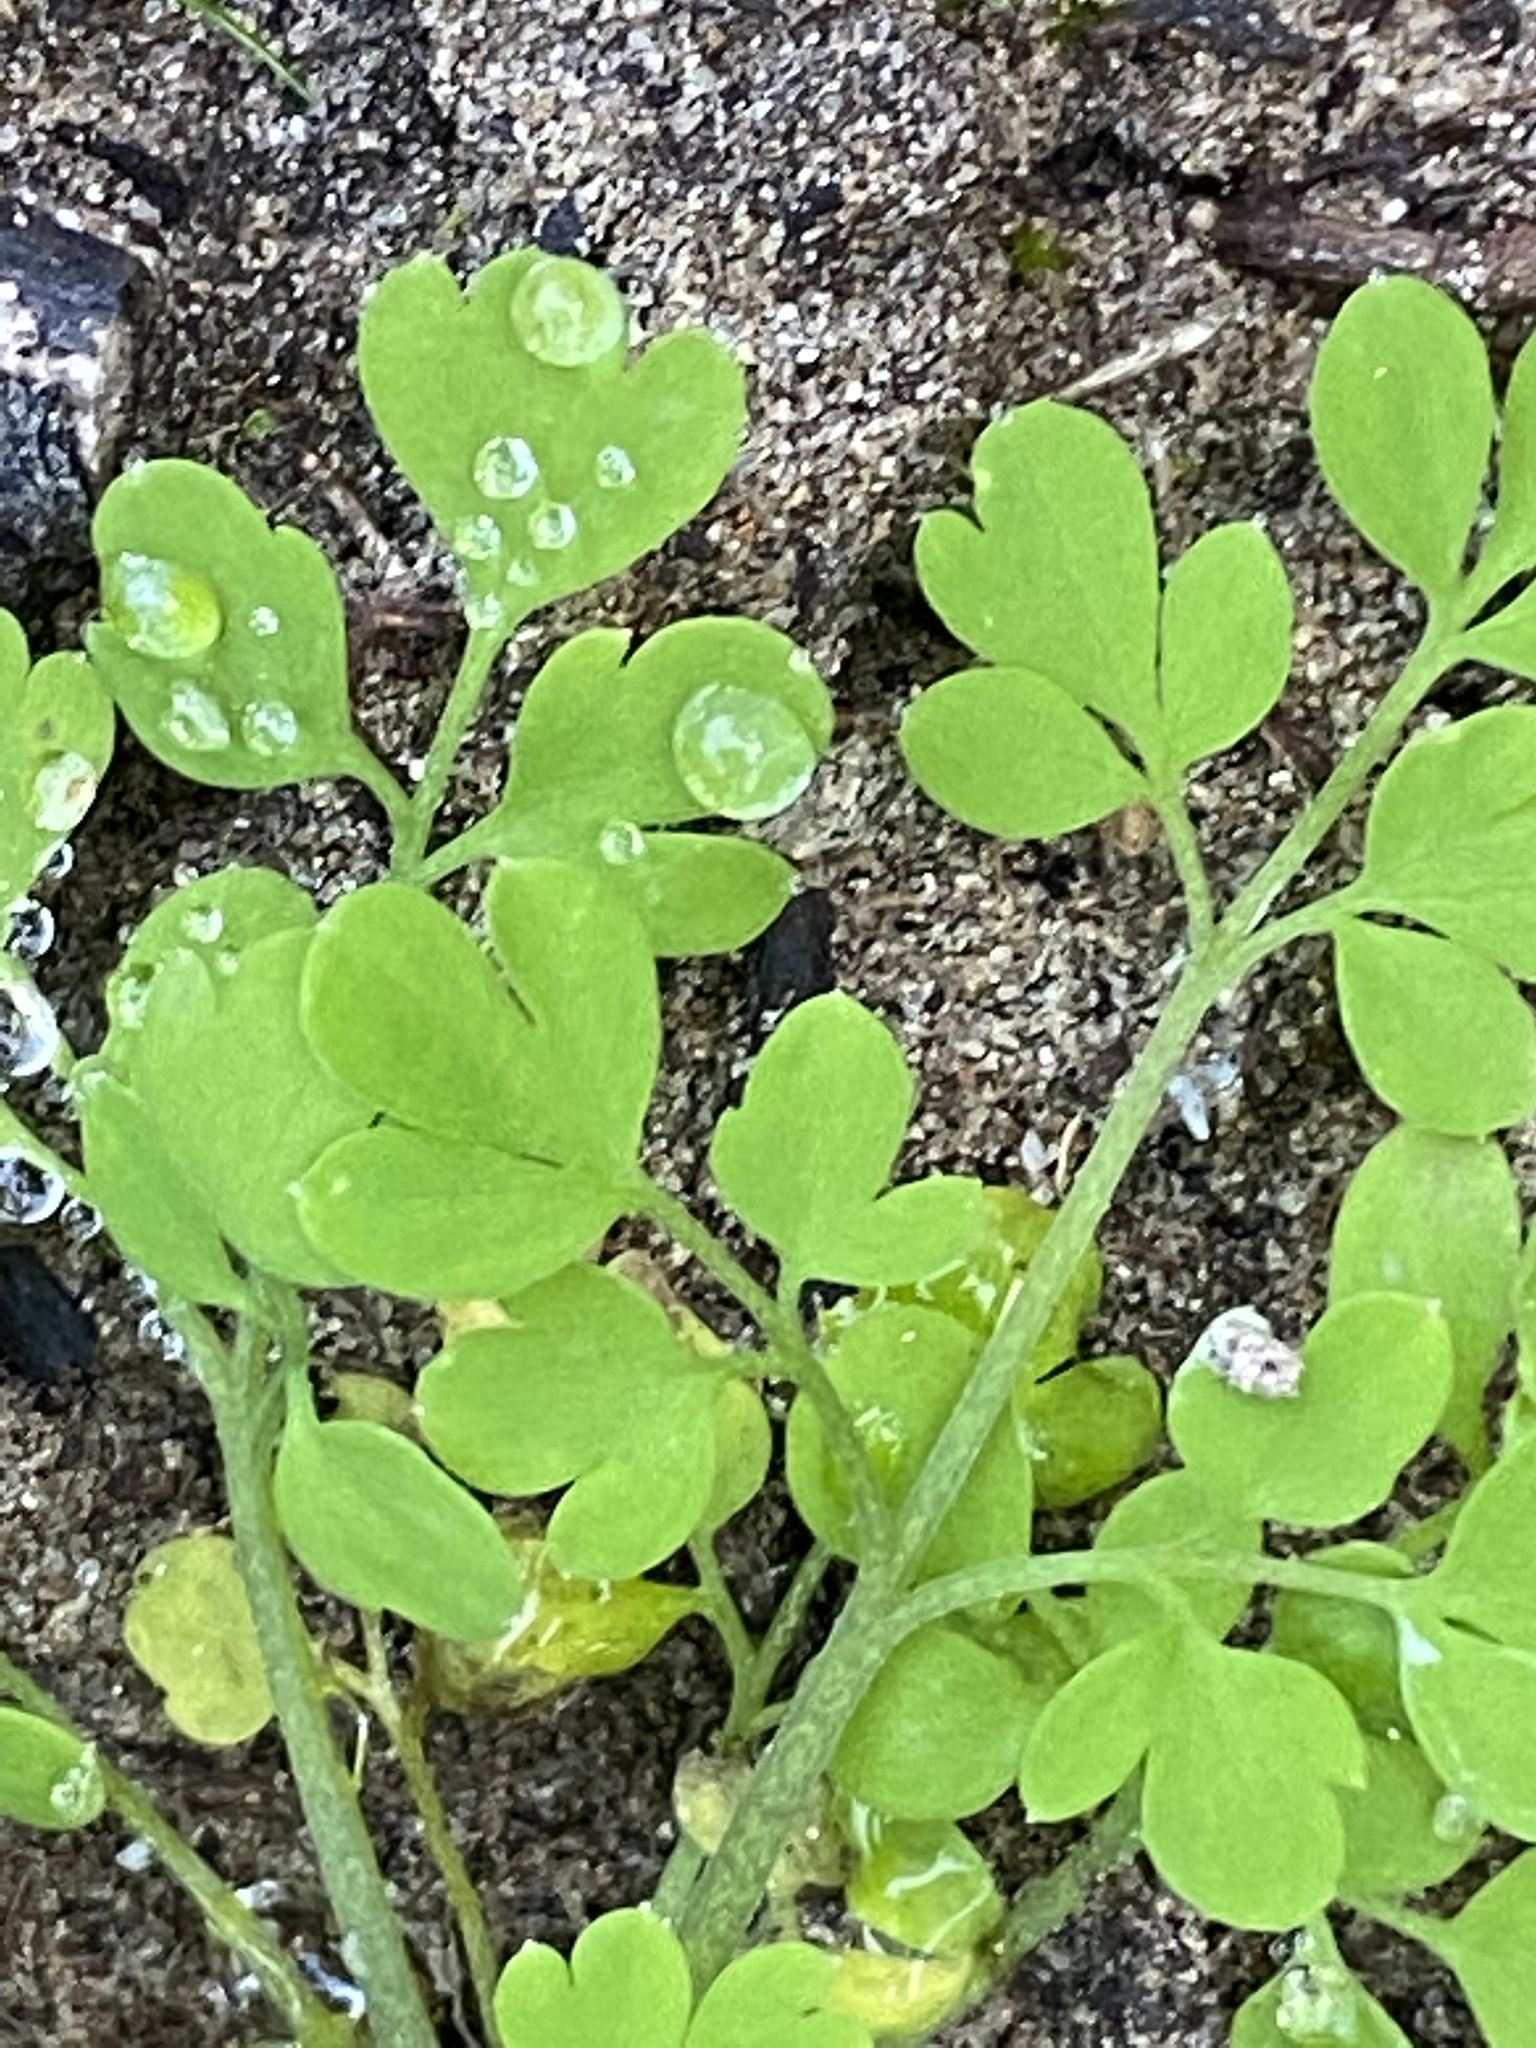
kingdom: Plantae
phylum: Tracheophyta
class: Magnoliopsida
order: Ranunculales
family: Papaveraceae
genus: Fumaria
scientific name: Fumaria muralis
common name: Common ramping-fumitory
